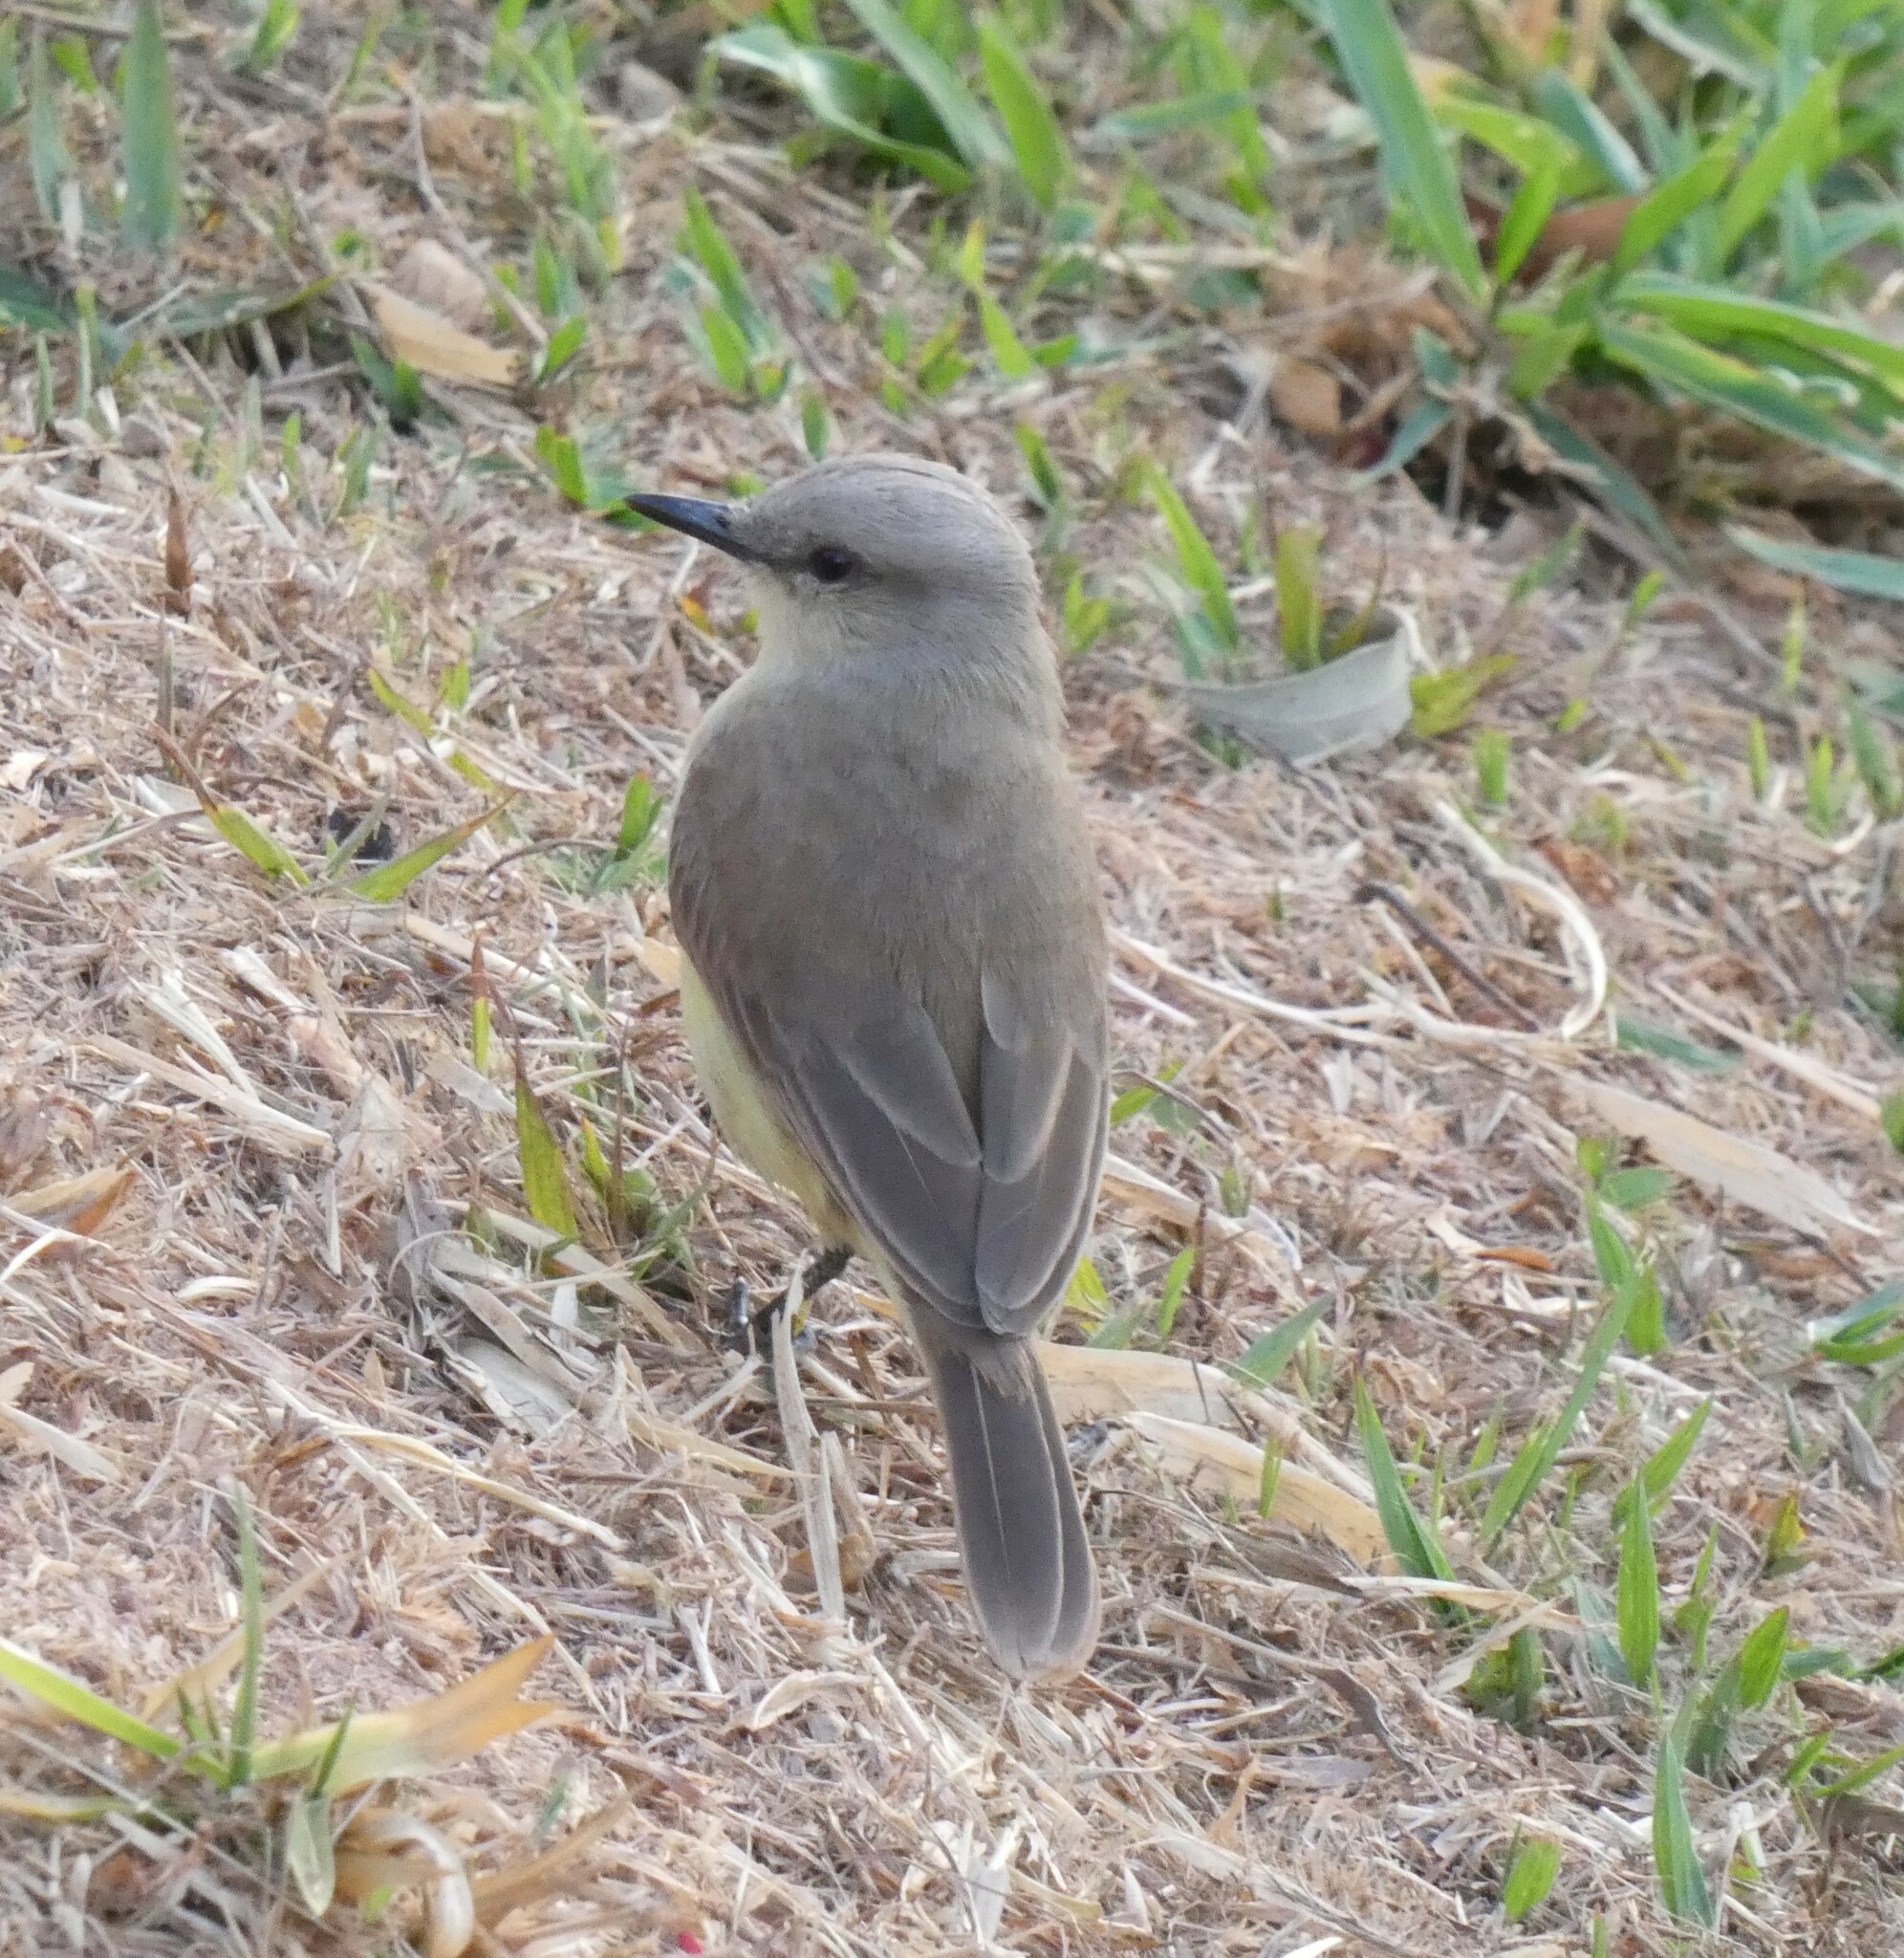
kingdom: Animalia
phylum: Chordata
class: Aves
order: Passeriformes
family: Tyrannidae
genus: Machetornis
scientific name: Machetornis rixosa
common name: Cattle tyrant
